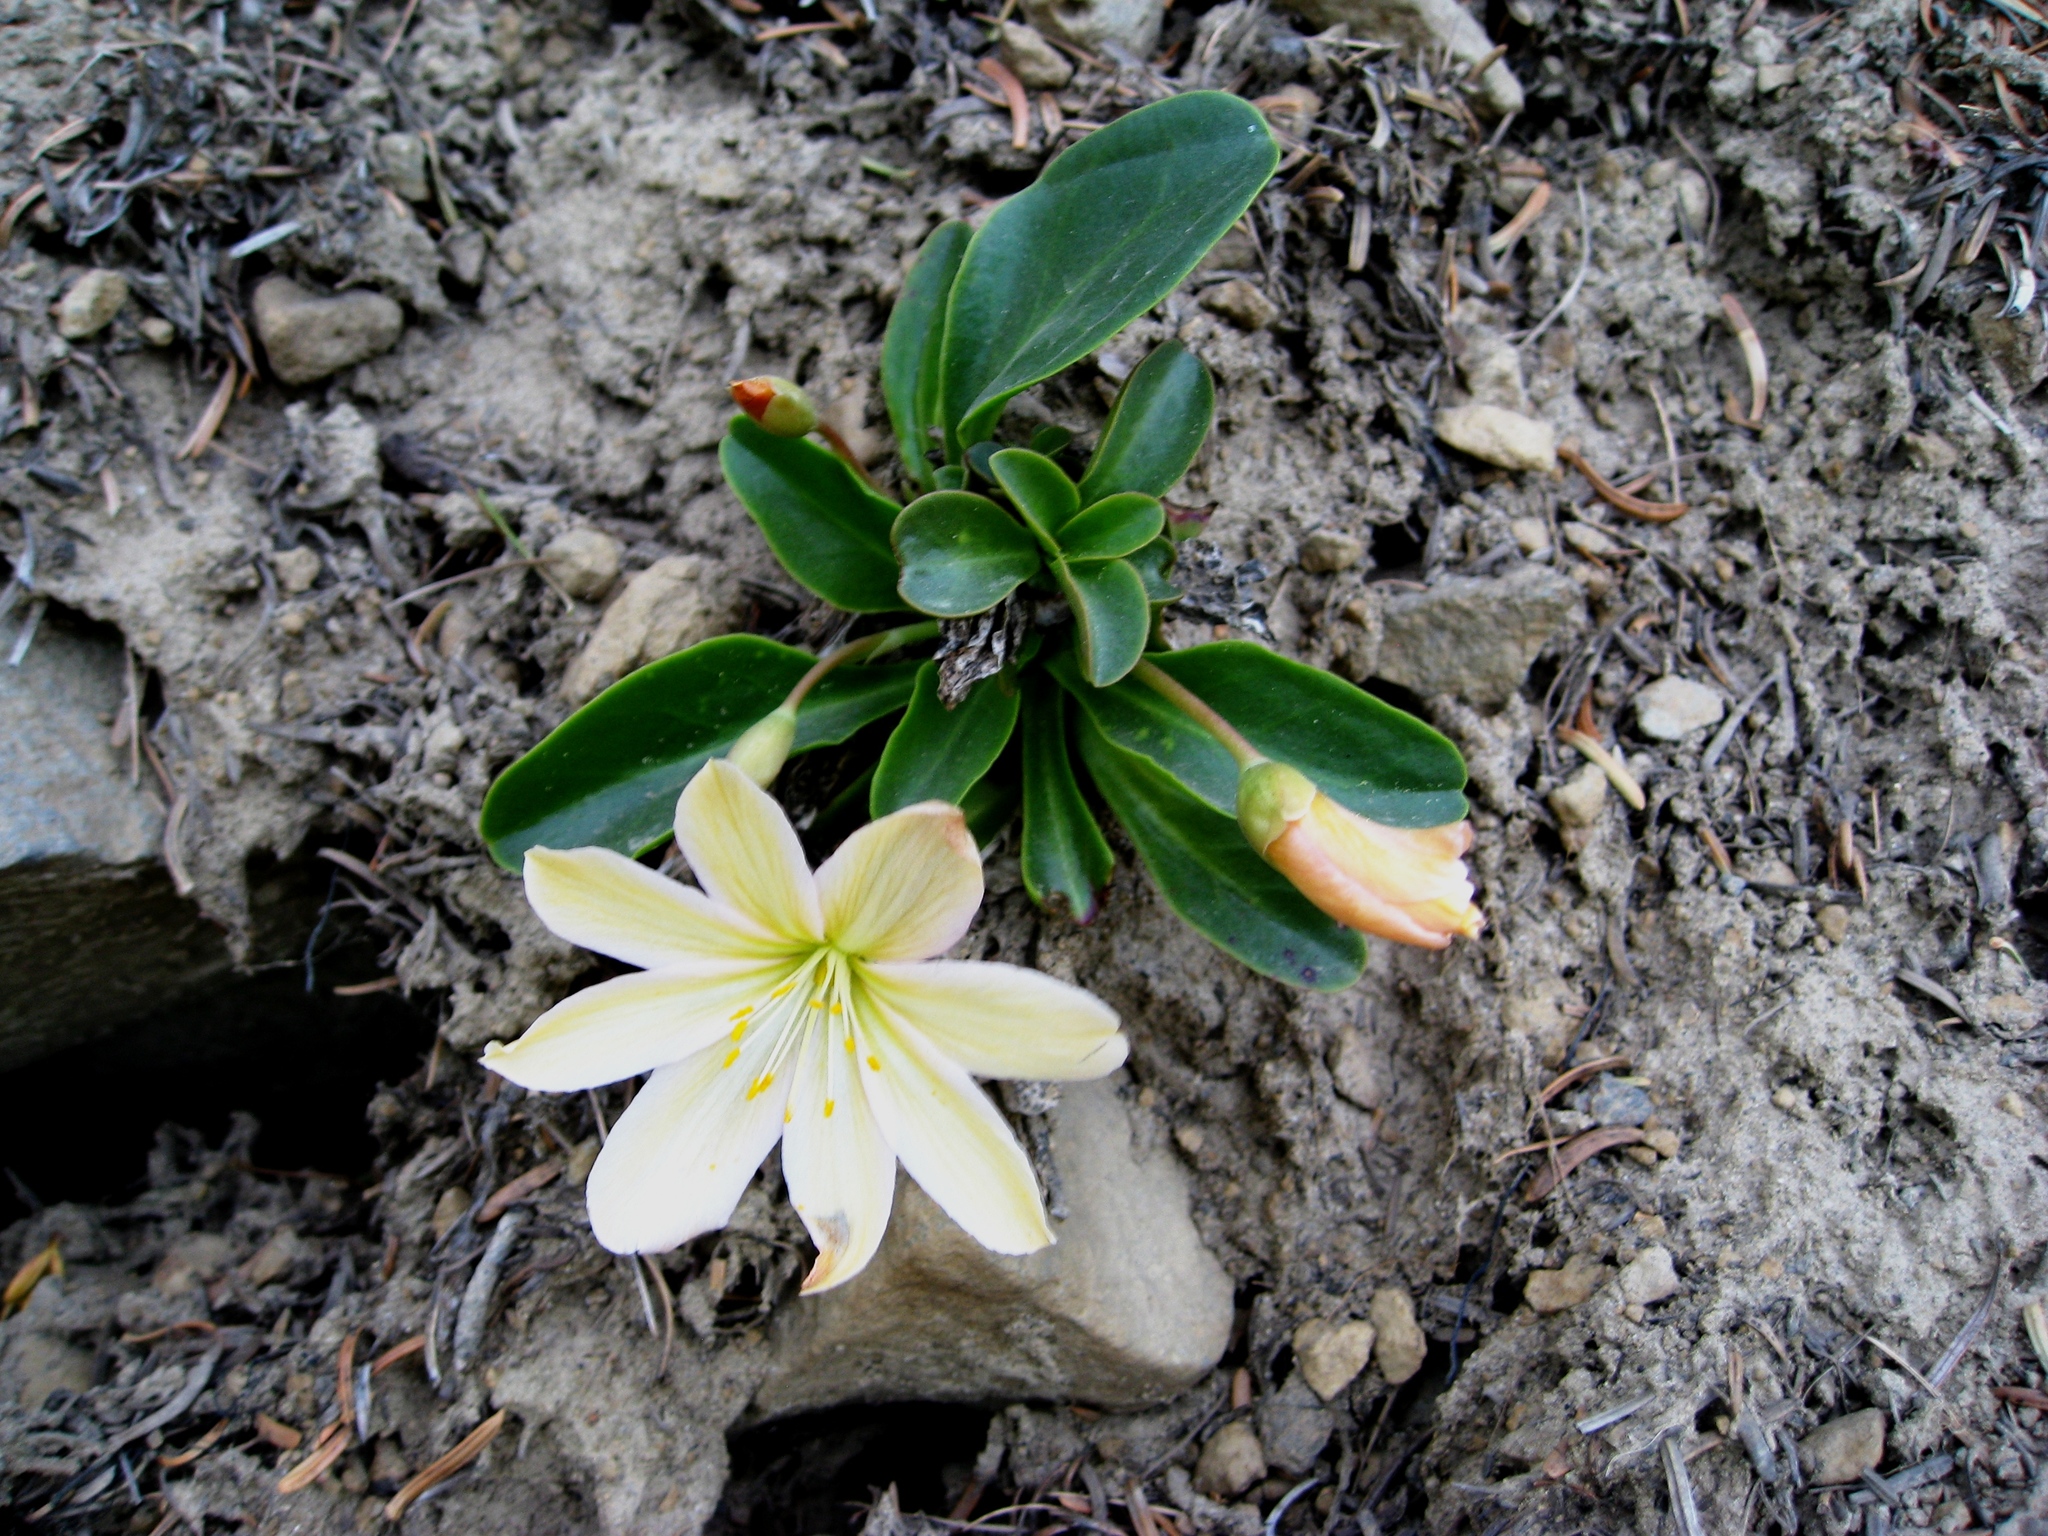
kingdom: Plantae
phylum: Tracheophyta
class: Magnoliopsida
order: Caryophyllales
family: Montiaceae
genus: Lewisiopsis
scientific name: Lewisiopsis tweedyi
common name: Tweedy's pussypaws
